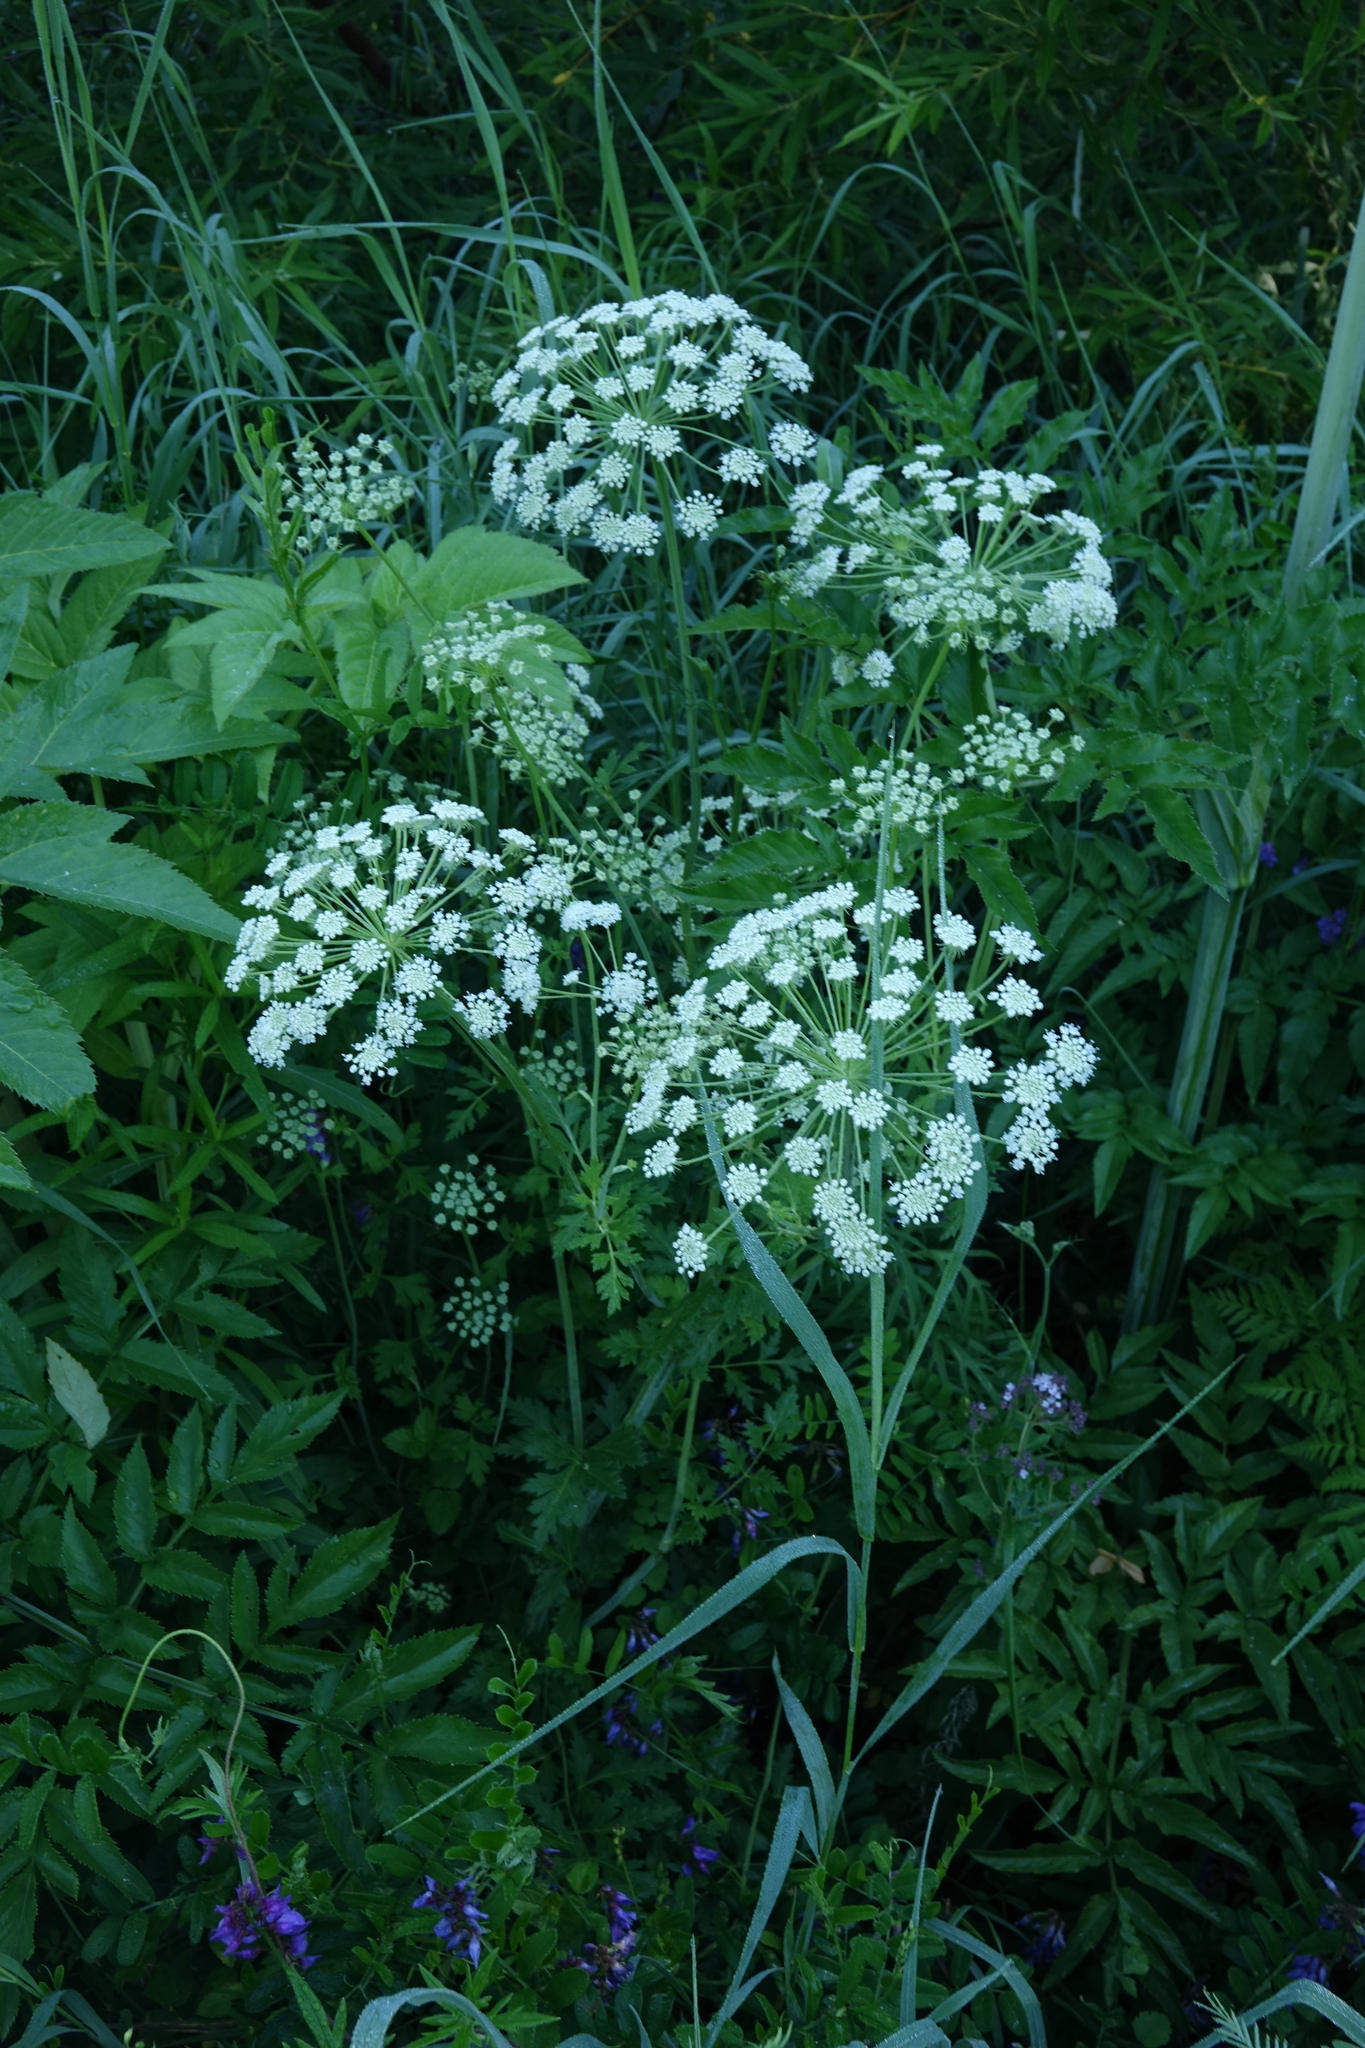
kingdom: Plantae
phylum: Tracheophyta
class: Magnoliopsida
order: Apiales
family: Apiaceae
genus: Angelica
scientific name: Angelica sylvestris
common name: Wild angelica
